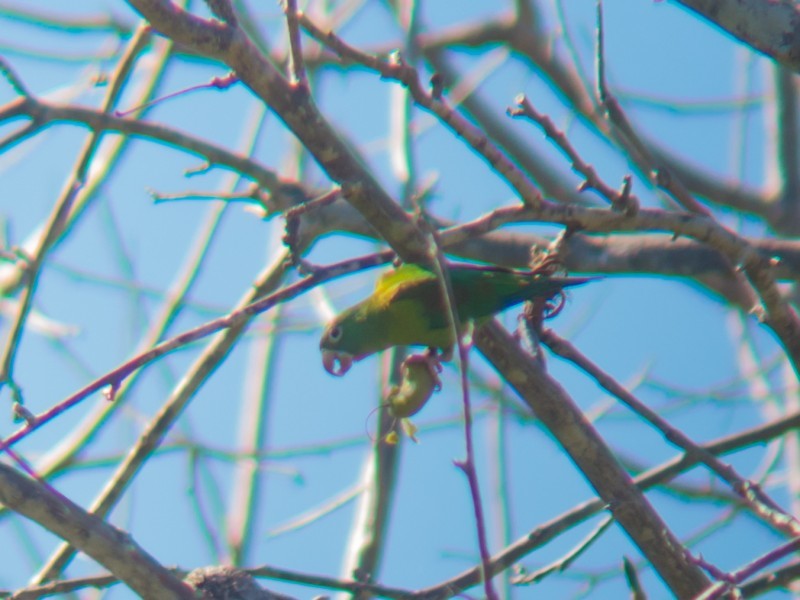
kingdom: Animalia
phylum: Chordata
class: Aves
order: Psittaciformes
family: Psittacidae
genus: Brotogeris
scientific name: Brotogeris jugularis
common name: Orange-chinned parakeet
